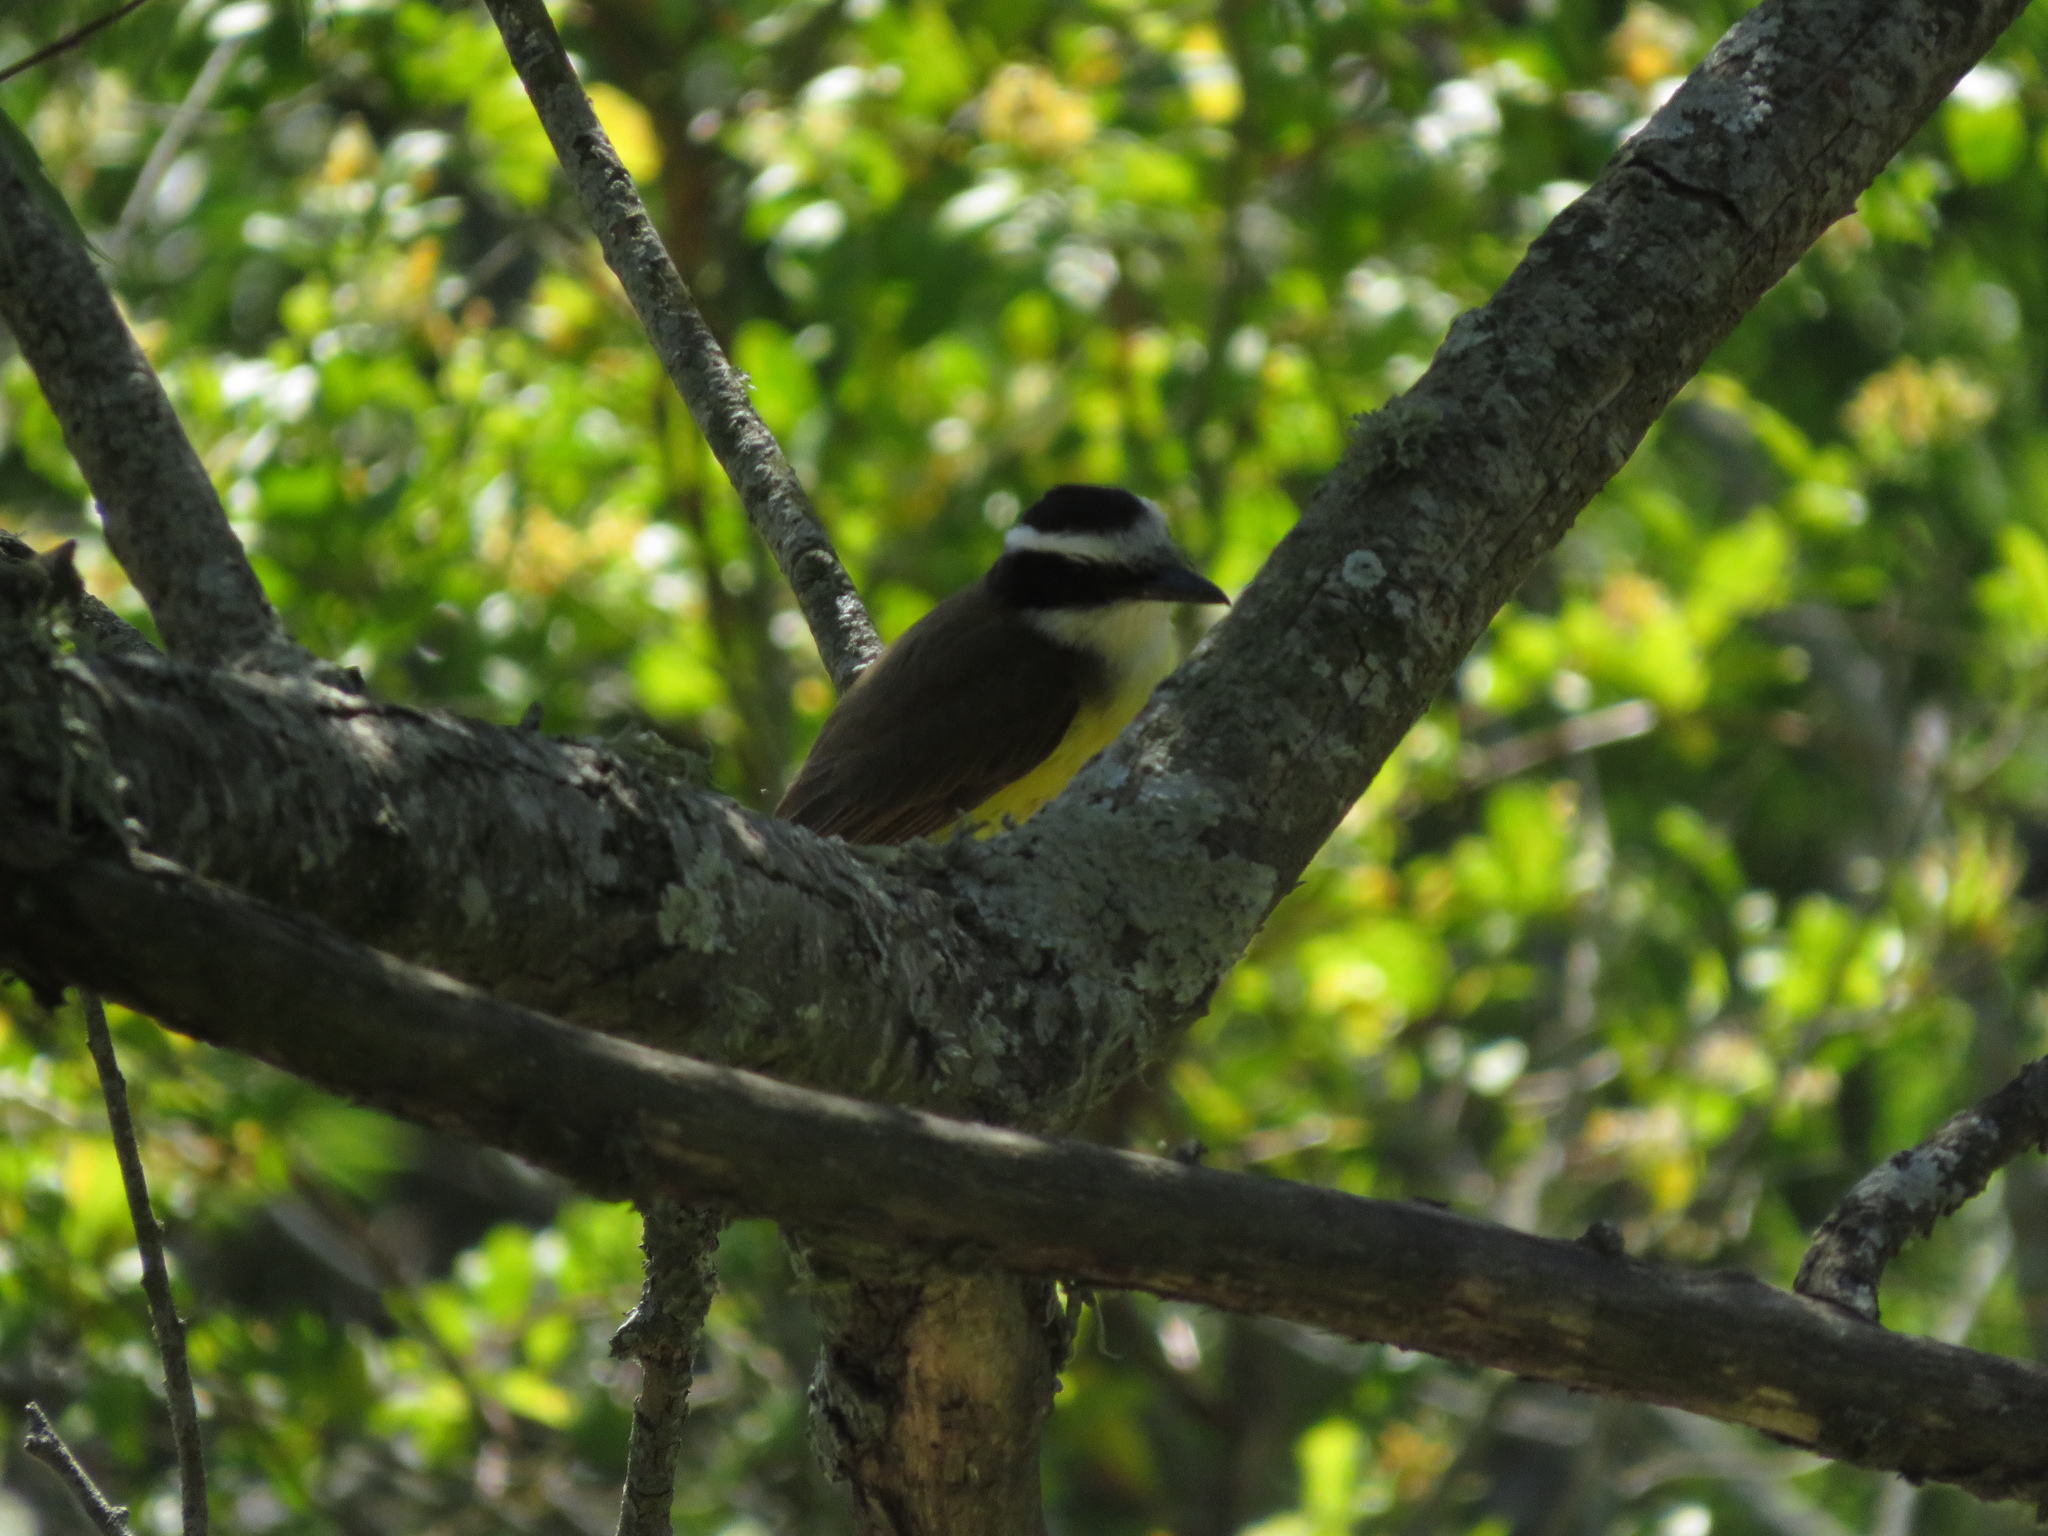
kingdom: Animalia
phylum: Chordata
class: Aves
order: Passeriformes
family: Tyrannidae
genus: Pitangus
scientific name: Pitangus sulphuratus
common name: Great kiskadee
